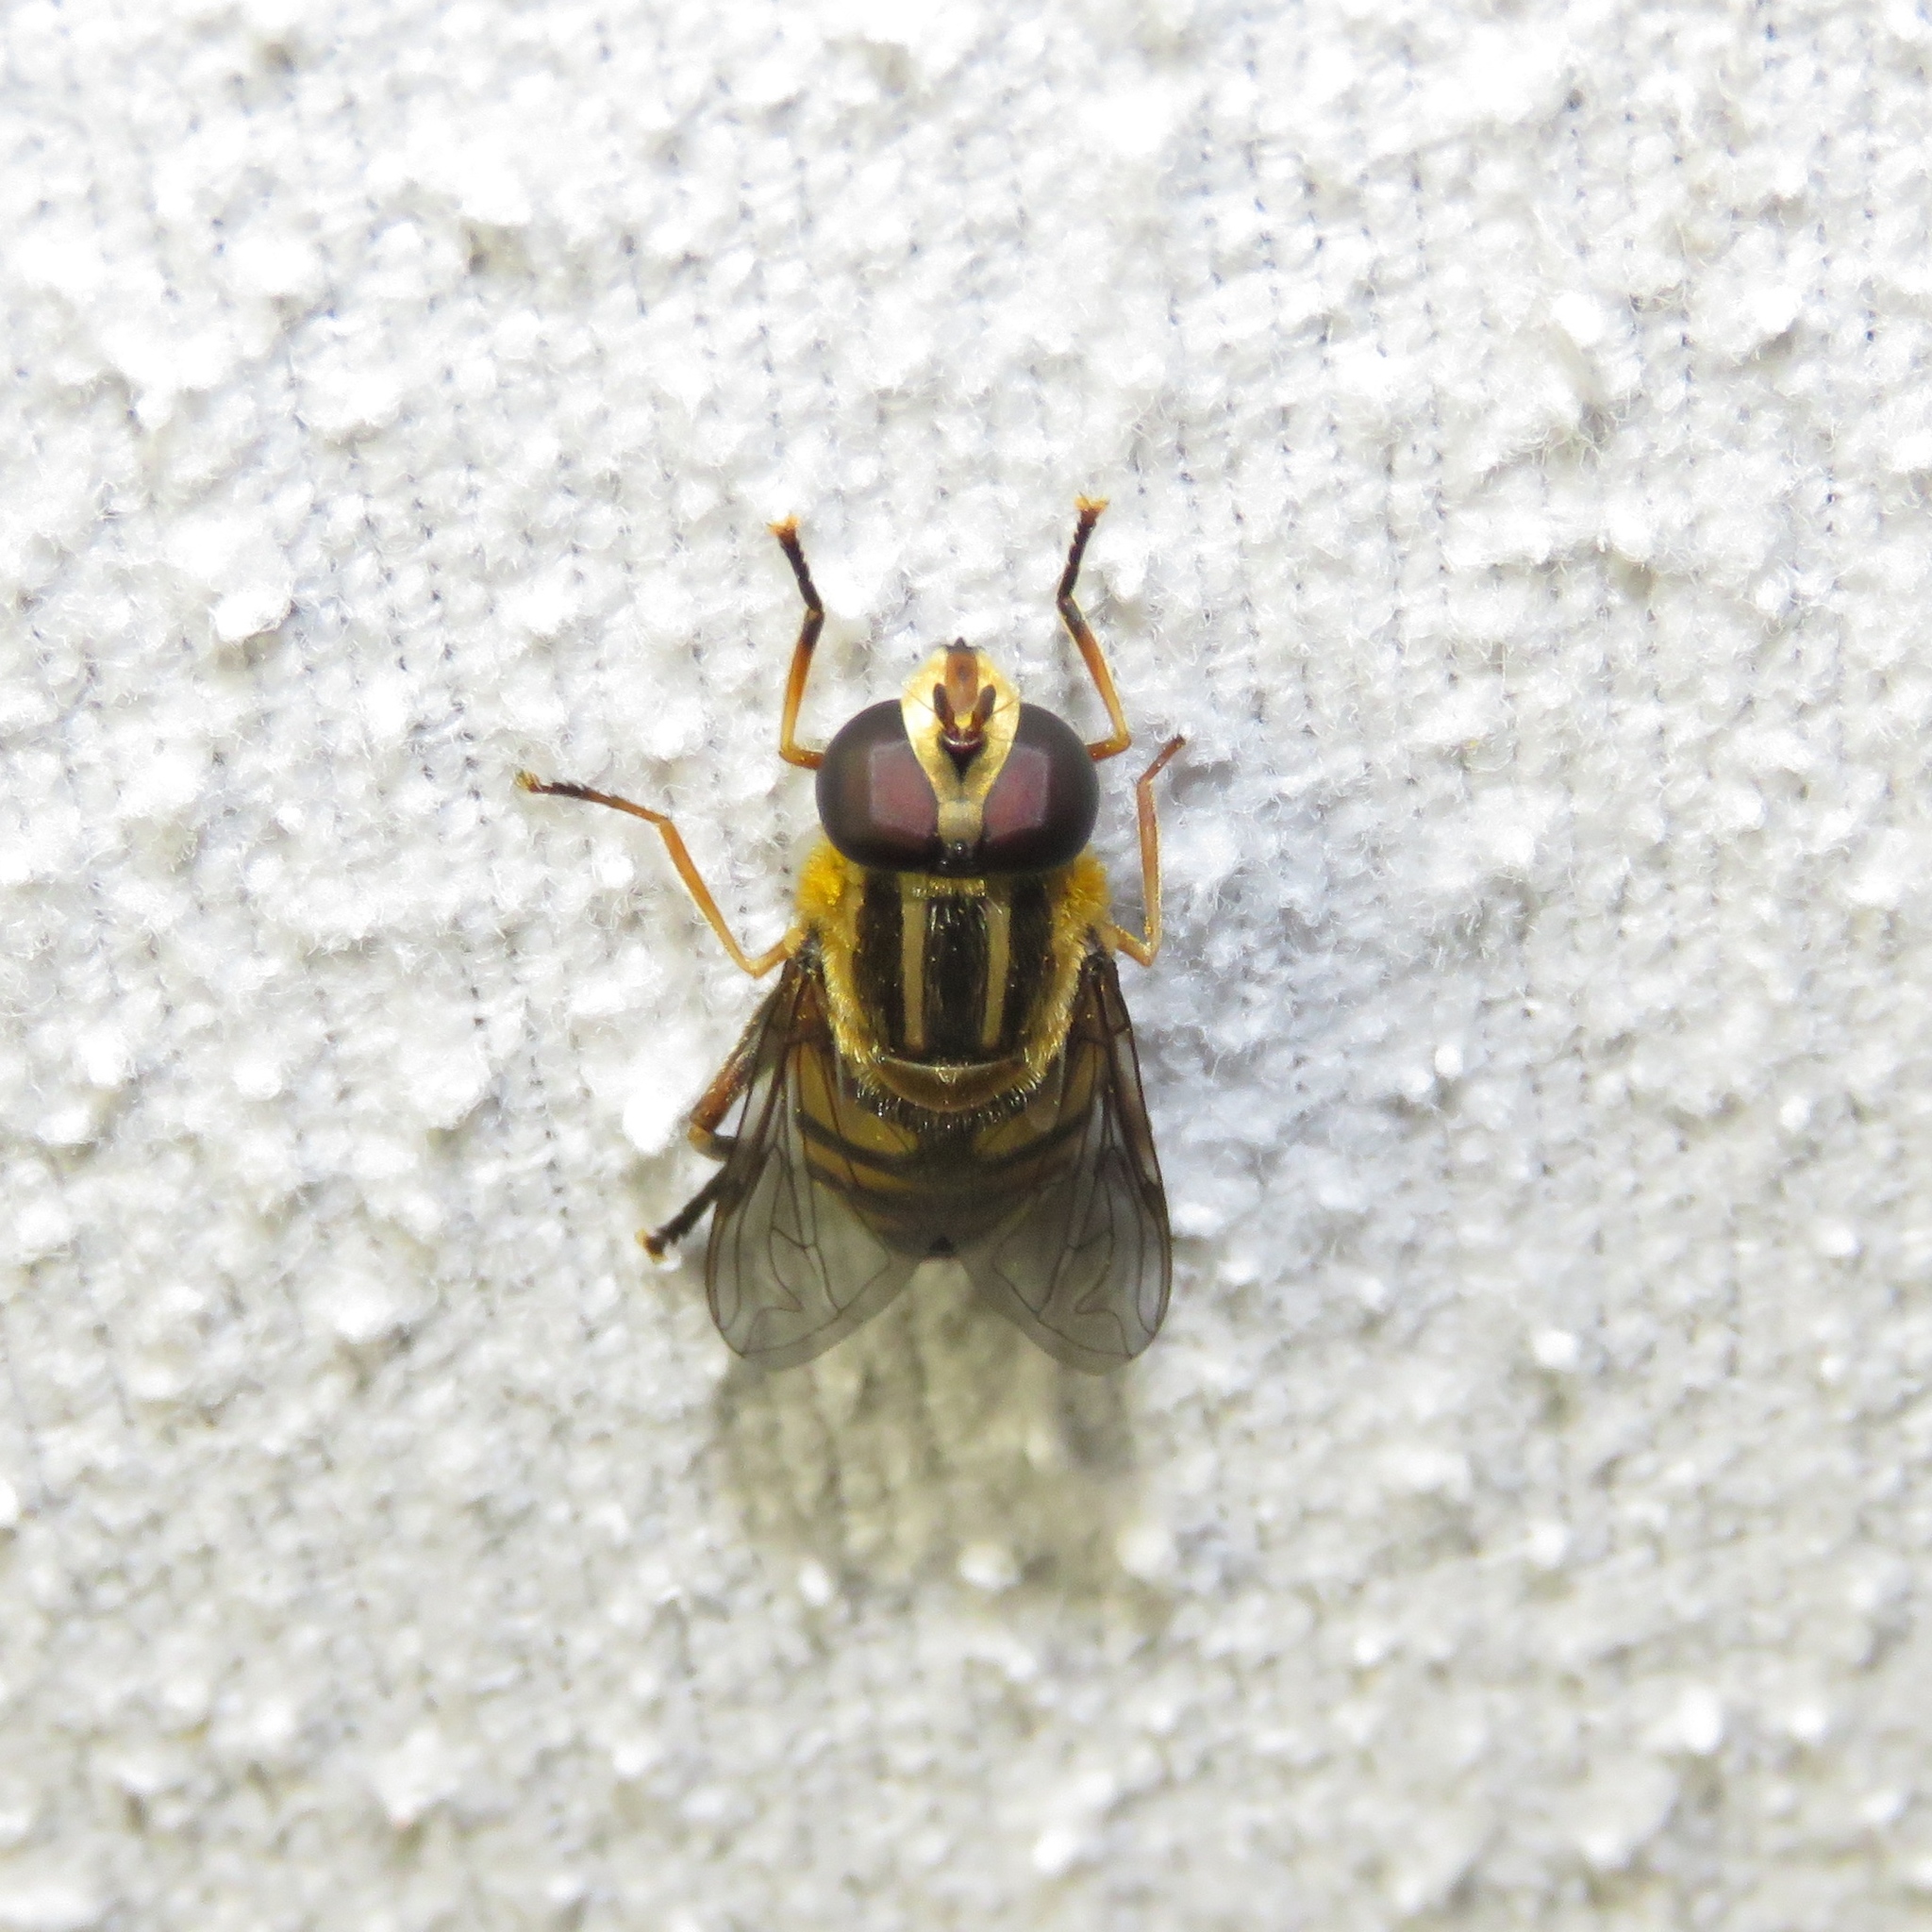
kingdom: Animalia
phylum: Arthropoda
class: Insecta
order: Diptera
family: Syrphidae
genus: Helophilus
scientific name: Helophilus fasciatus
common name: Narrow-headed marsh fly
